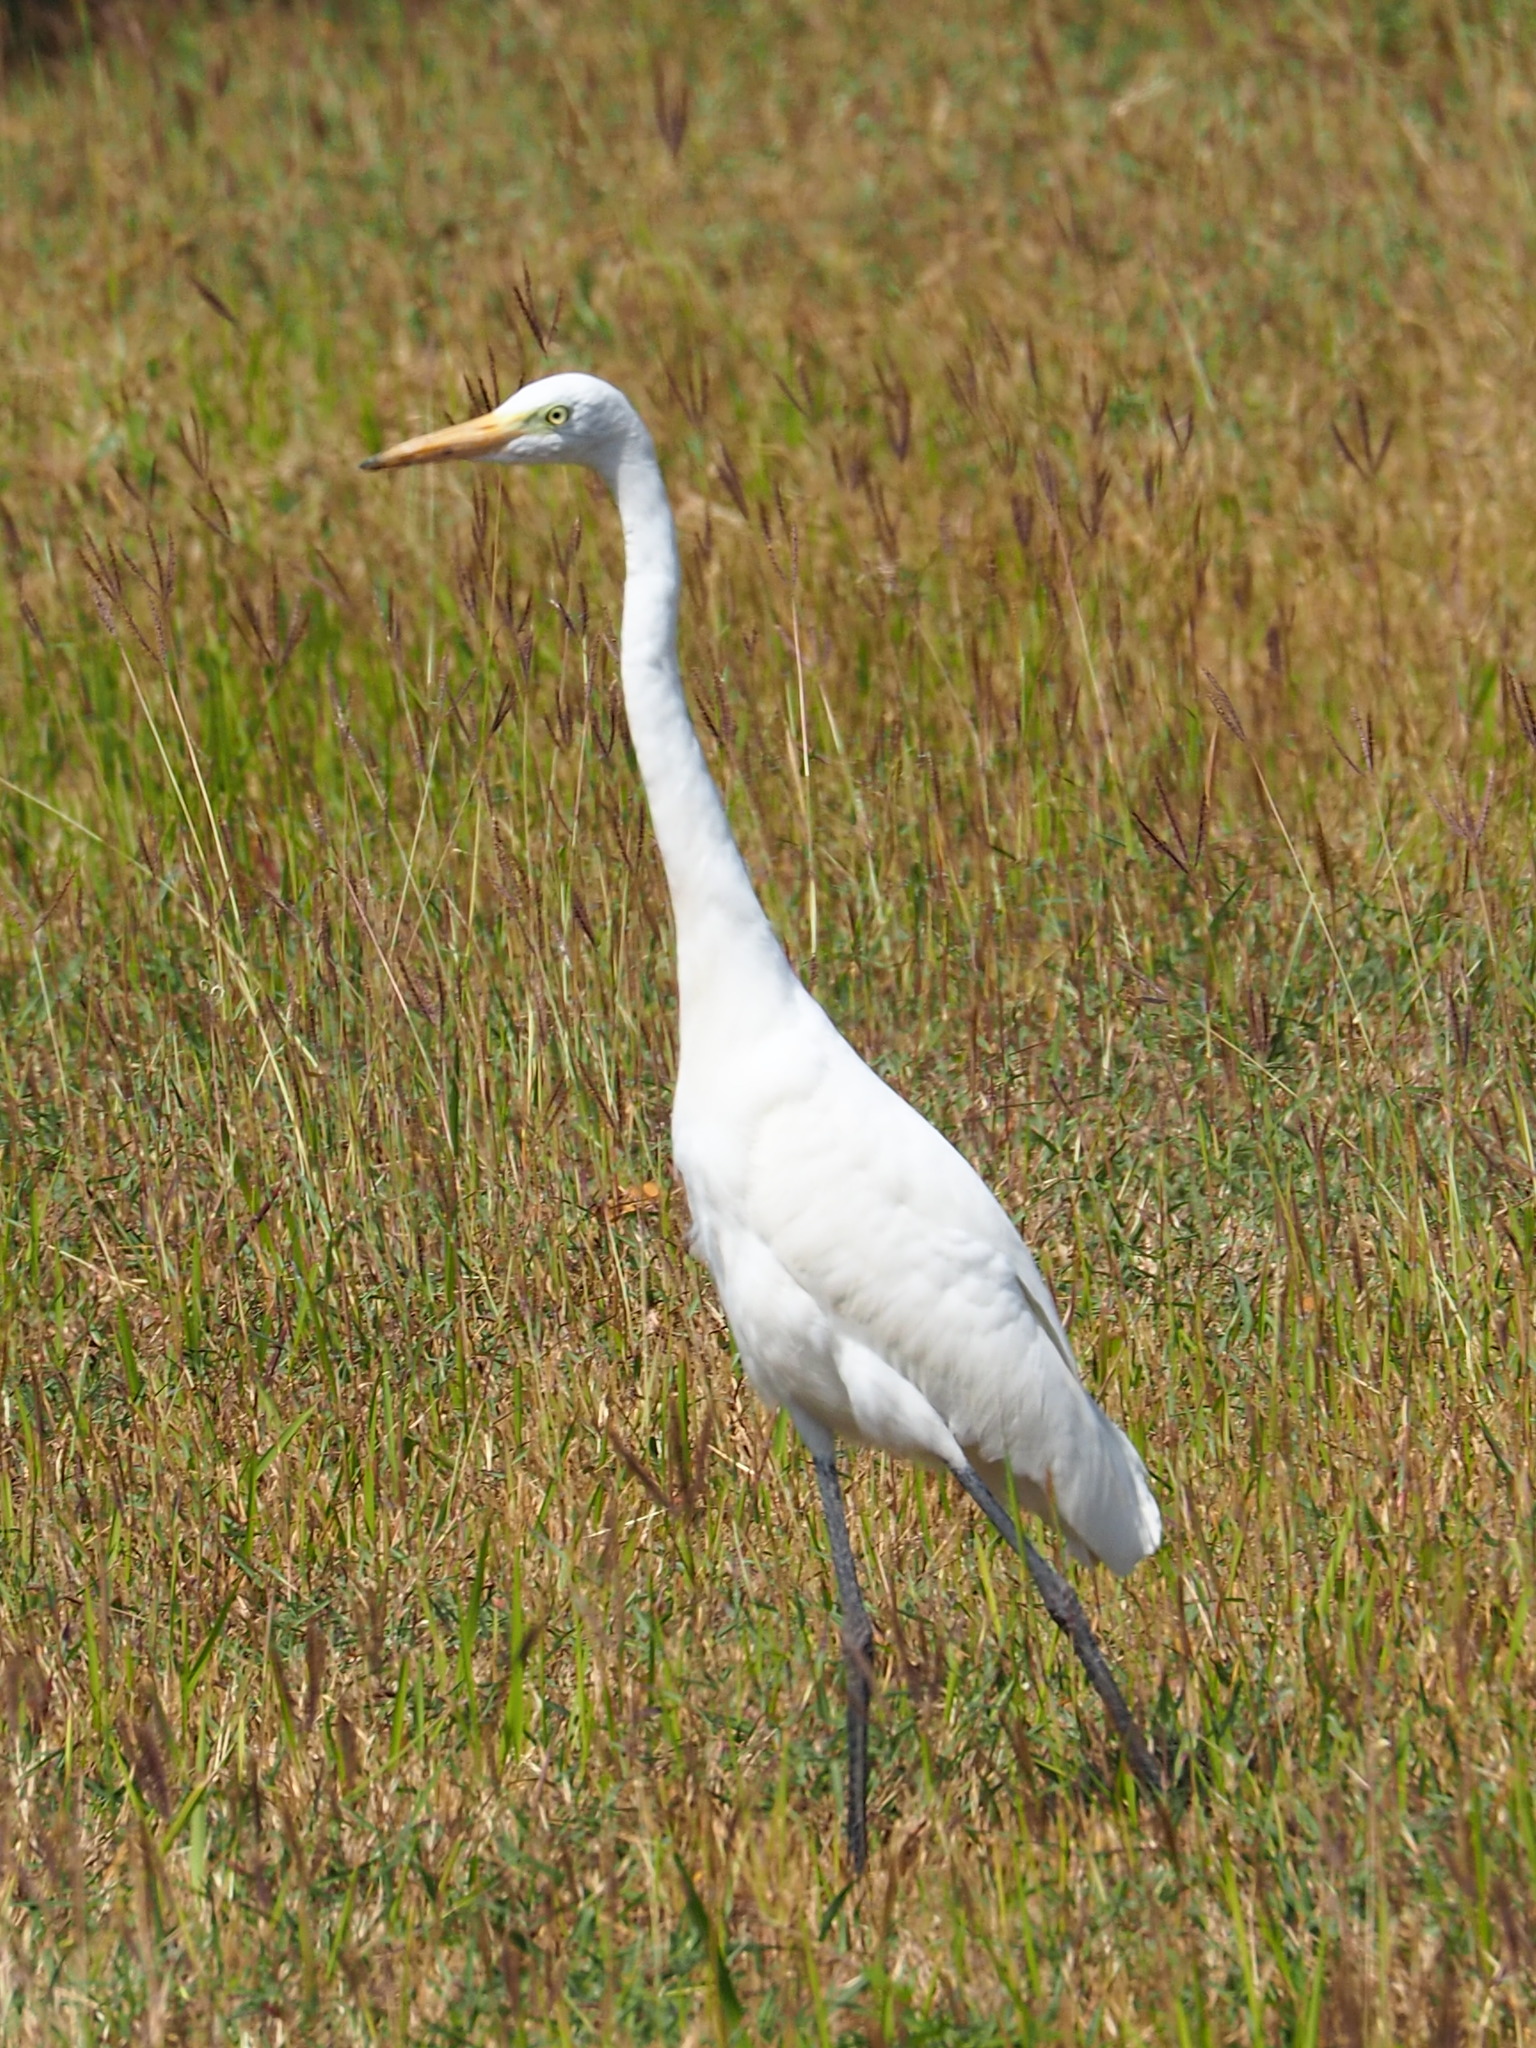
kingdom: Animalia
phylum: Chordata
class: Aves
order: Pelecaniformes
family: Ardeidae
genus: Egretta
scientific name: Egretta intermedia
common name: Intermediate egret
